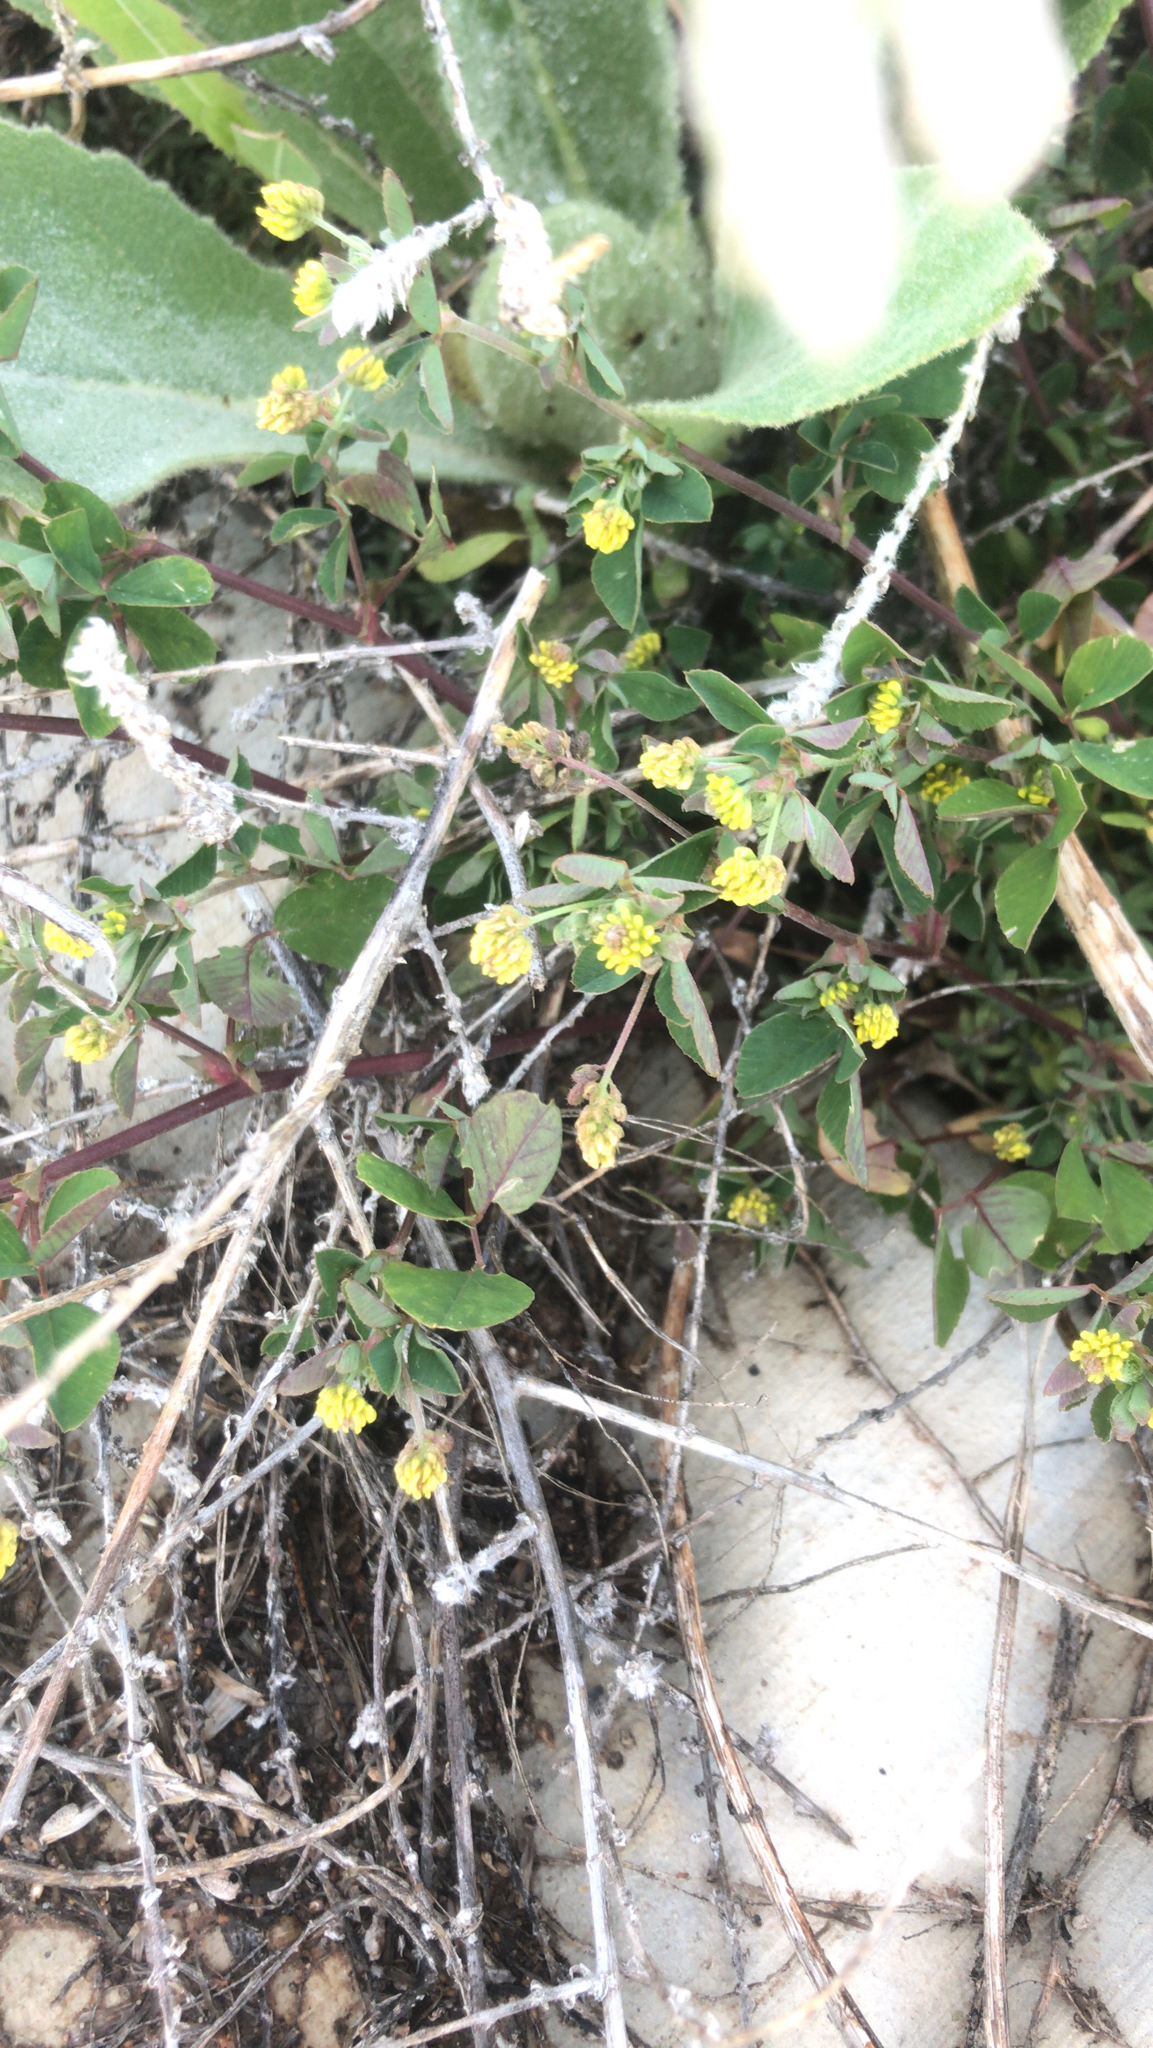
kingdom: Plantae
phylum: Tracheophyta
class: Magnoliopsida
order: Fabales
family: Fabaceae
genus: Medicago
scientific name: Medicago lupulina
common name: Black medick
